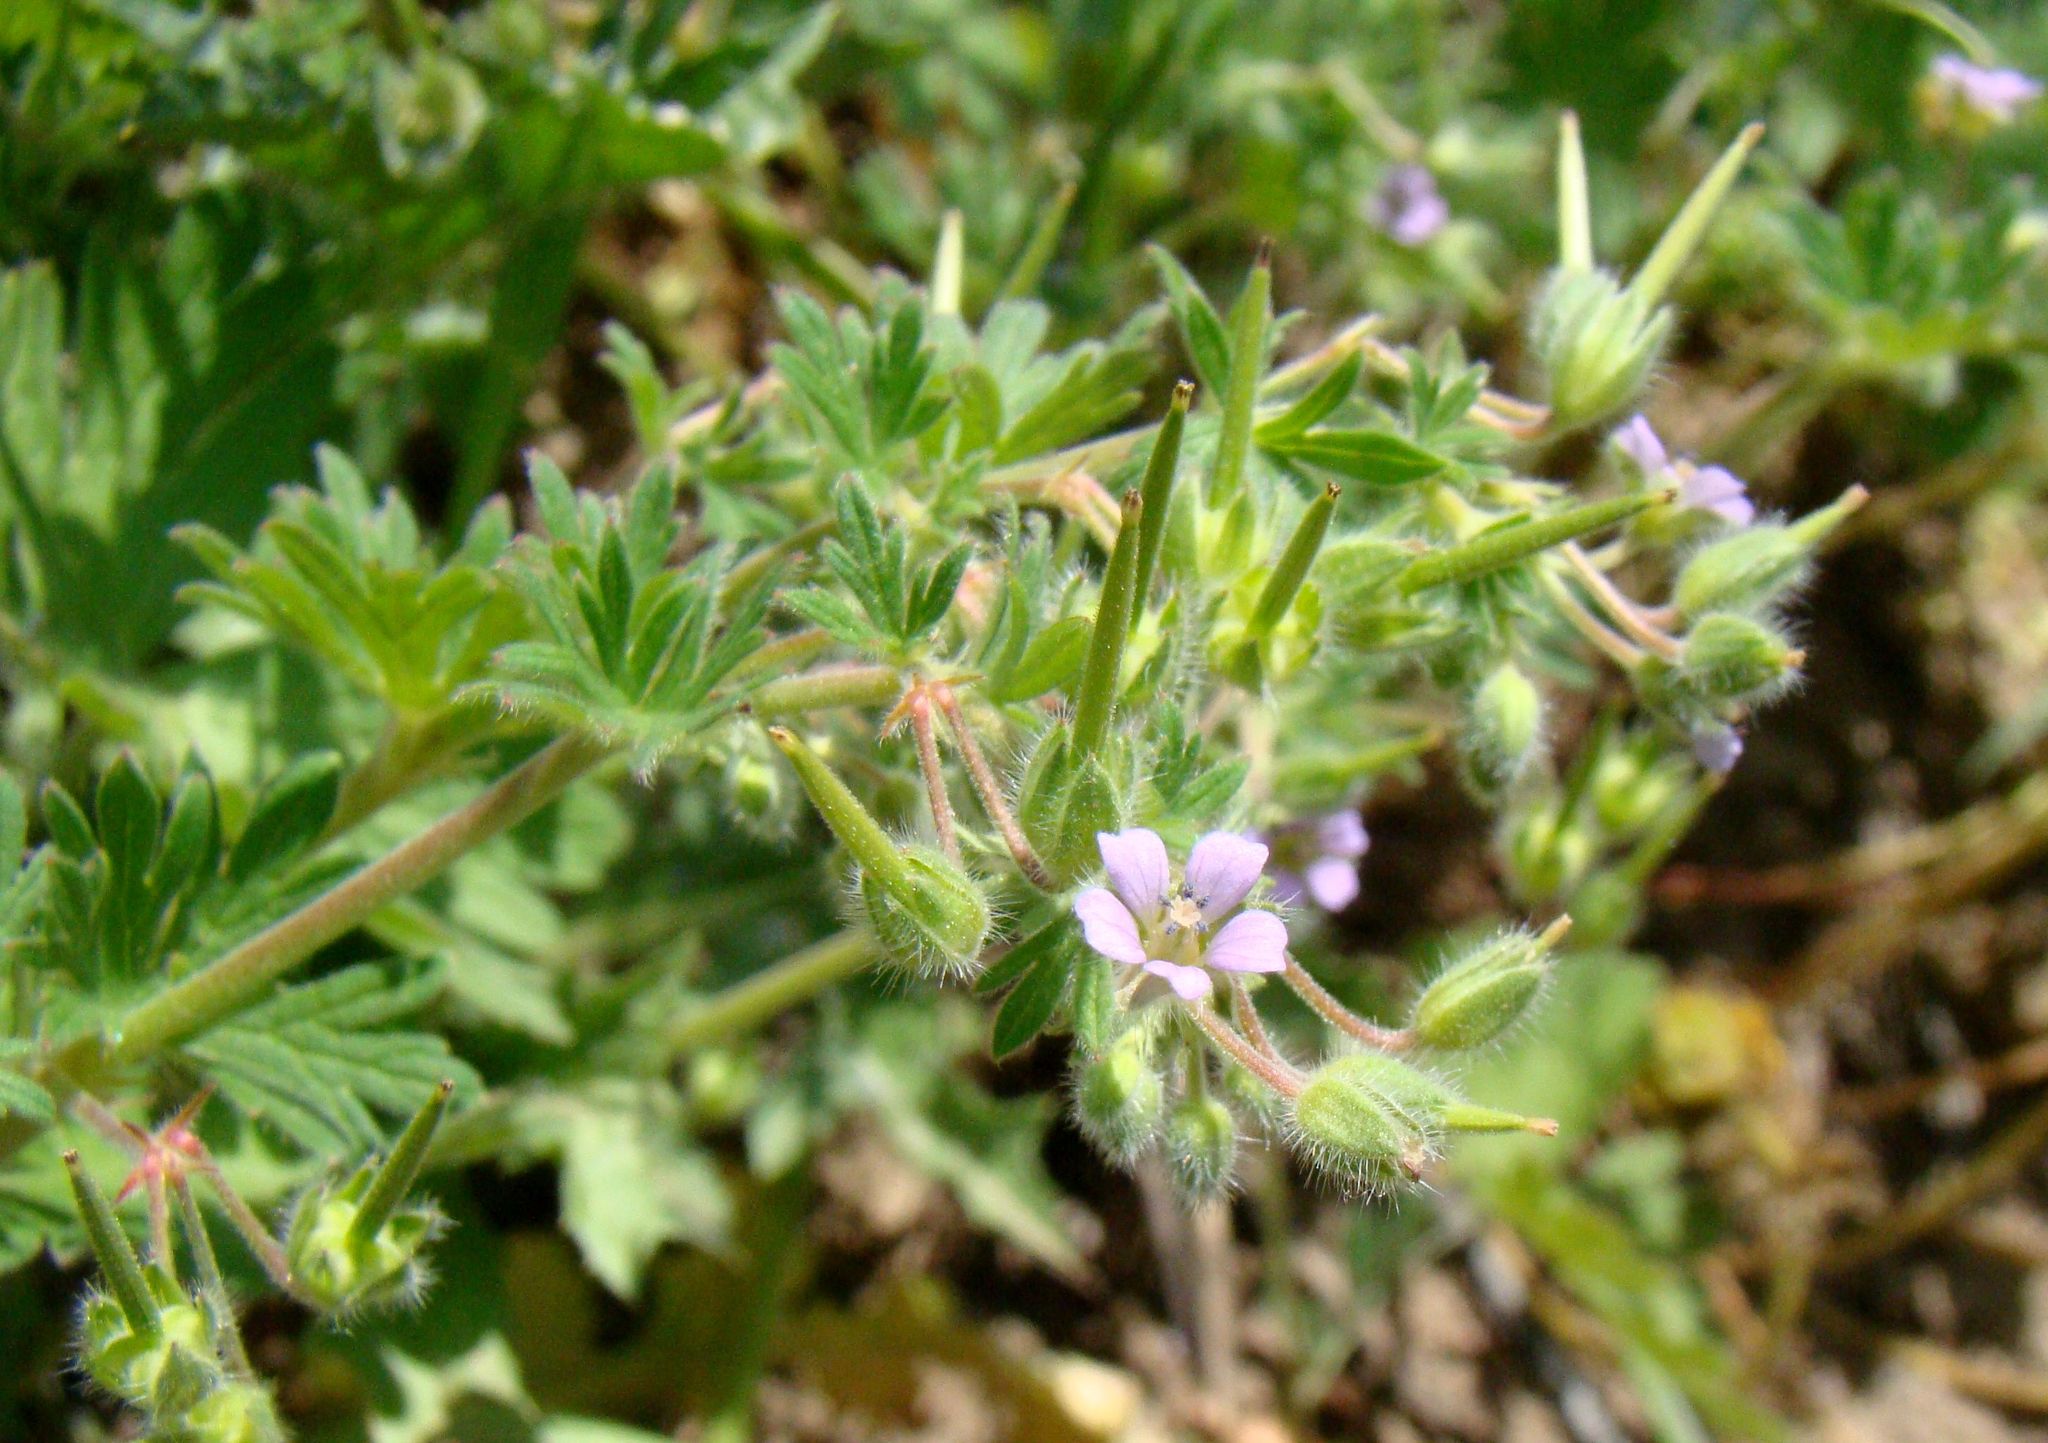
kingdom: Plantae
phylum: Tracheophyta
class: Magnoliopsida
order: Geraniales
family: Geraniaceae
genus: Geranium
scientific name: Geranium pusillum
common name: Small geranium
